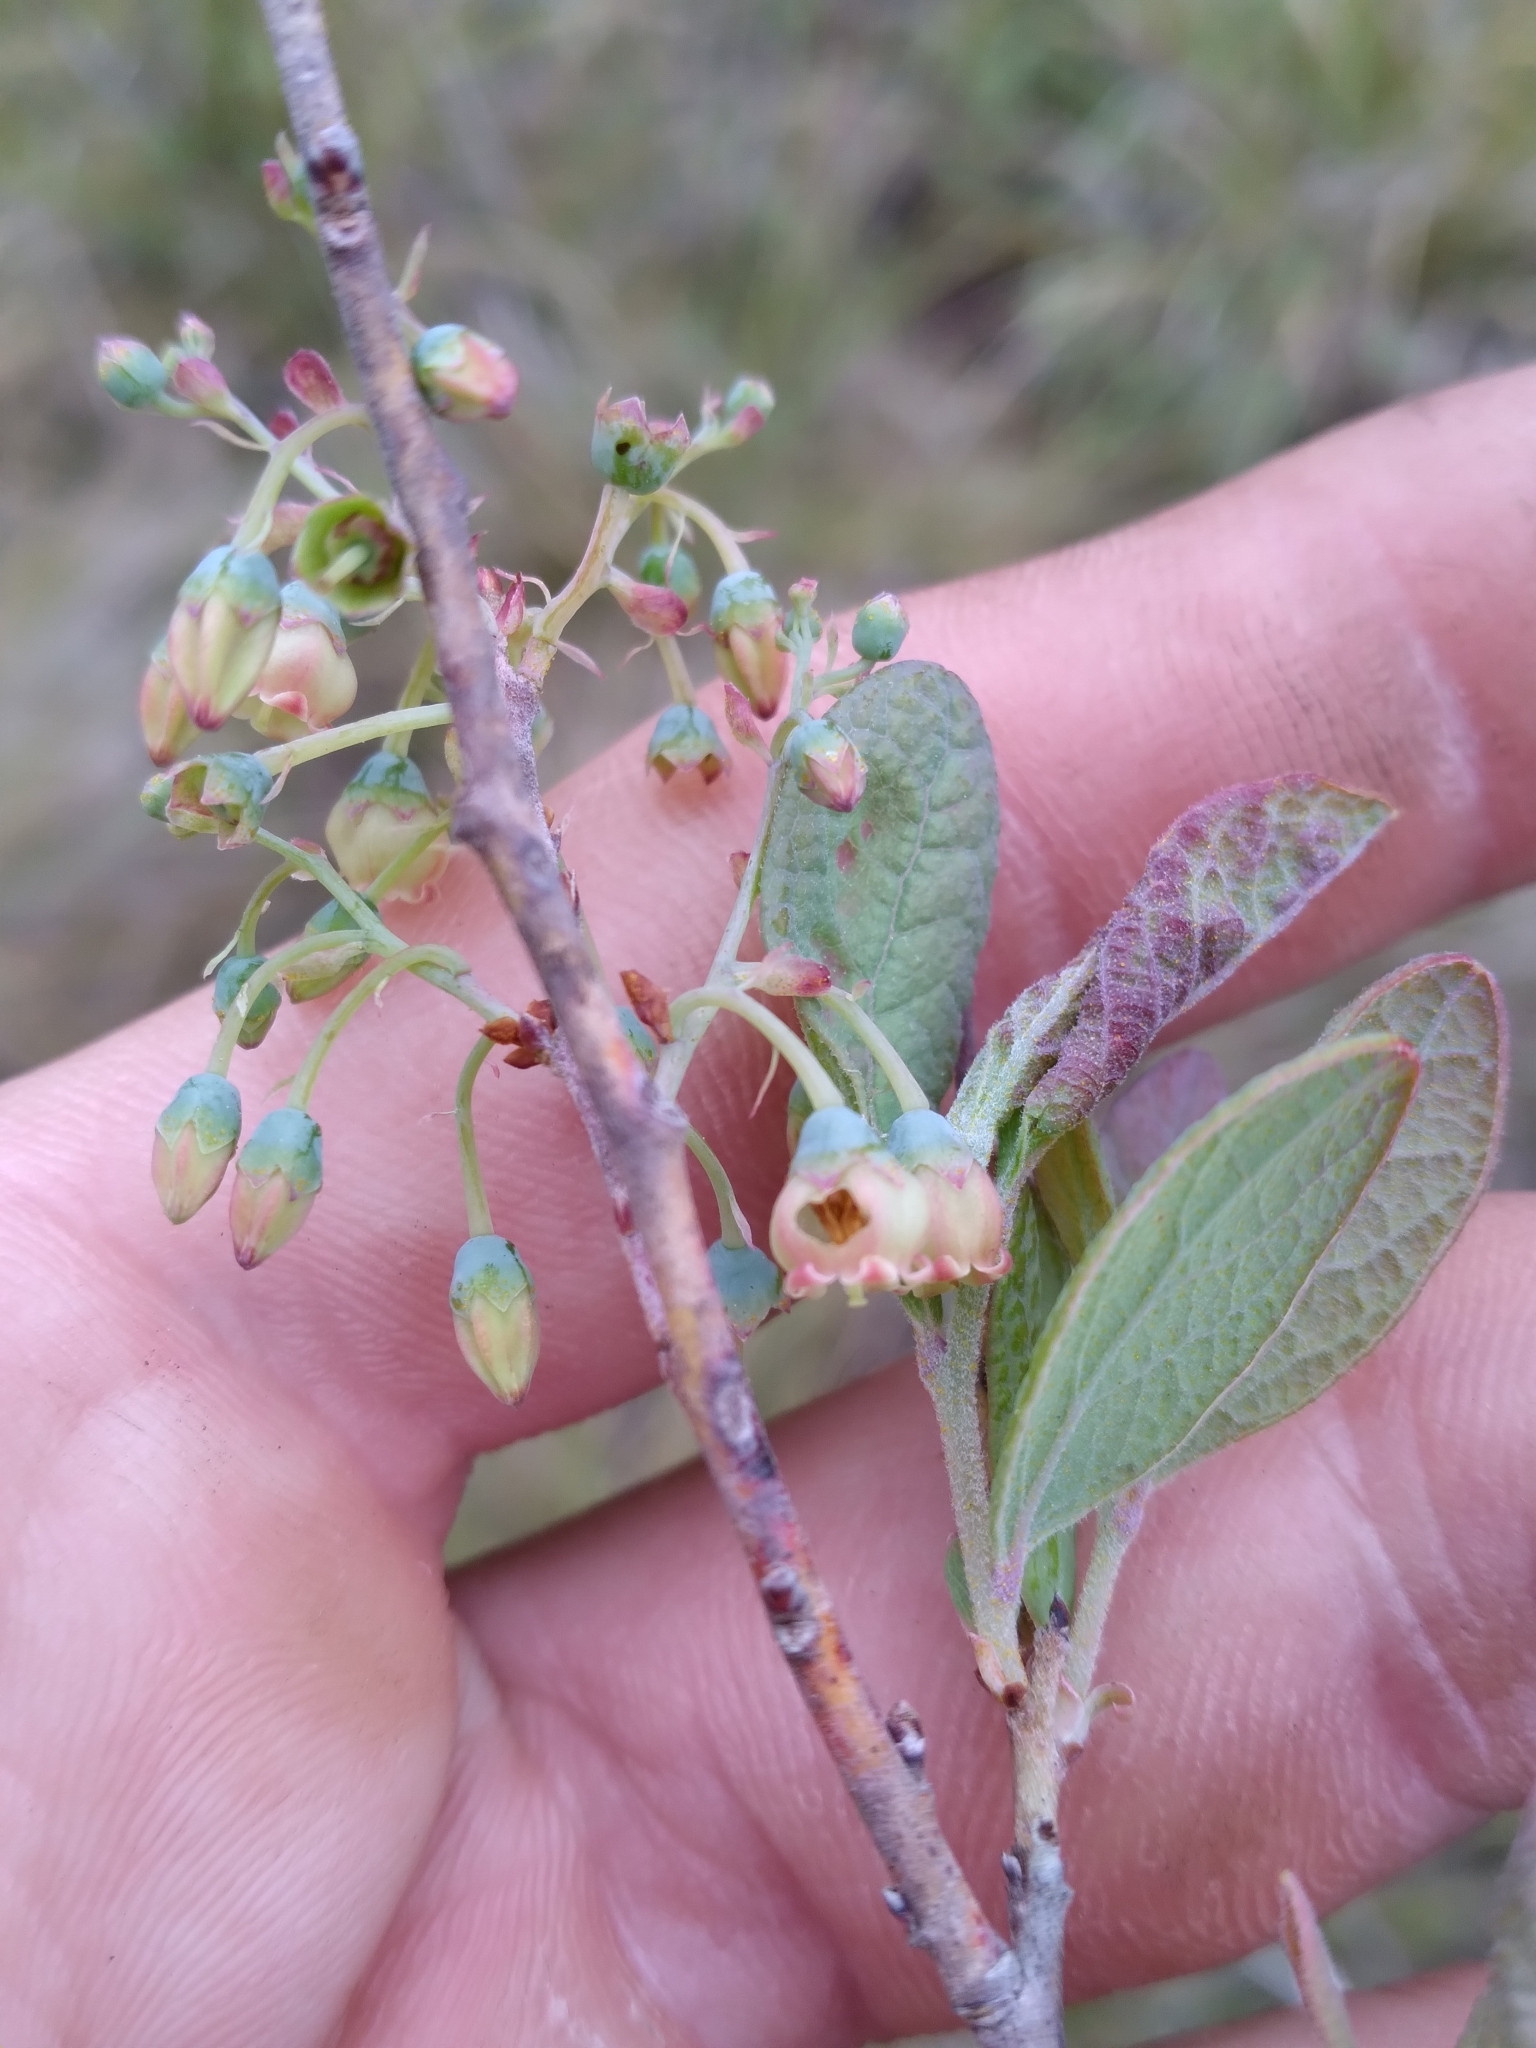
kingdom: Plantae
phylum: Tracheophyta
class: Magnoliopsida
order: Ericales
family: Ericaceae
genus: Gaylussacia
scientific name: Gaylussacia nana
